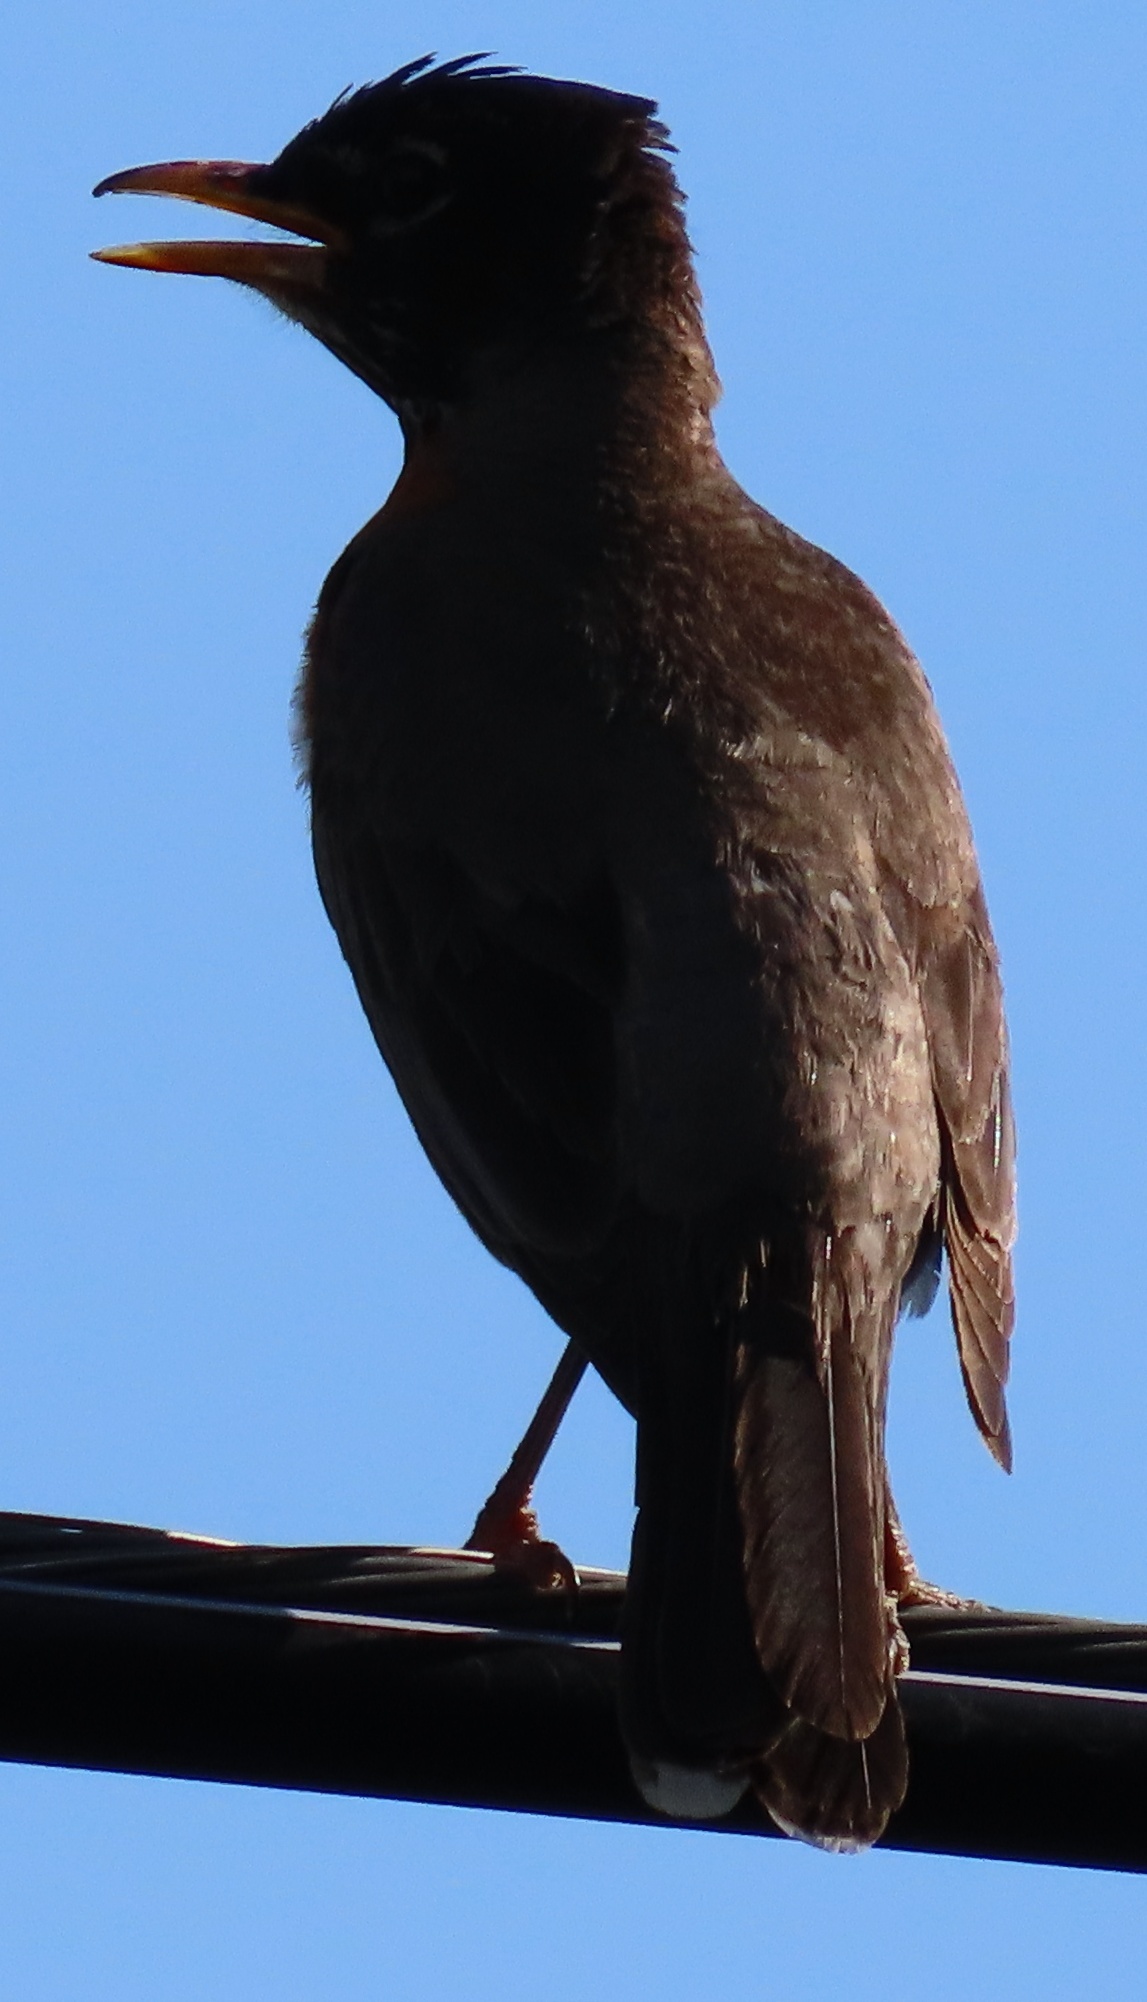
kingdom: Animalia
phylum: Chordata
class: Aves
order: Passeriformes
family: Turdidae
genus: Turdus
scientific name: Turdus migratorius
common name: American robin
